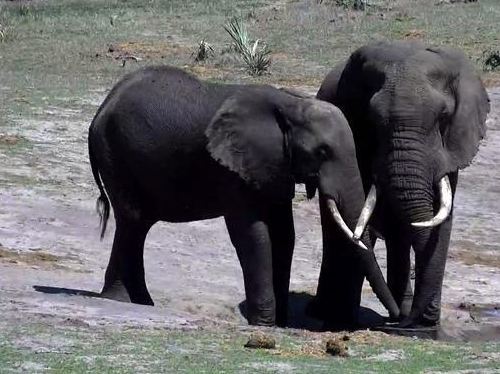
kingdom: Animalia
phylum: Chordata
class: Mammalia
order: Proboscidea
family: Elephantidae
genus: Loxodonta
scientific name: Loxodonta africana
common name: African elephant
